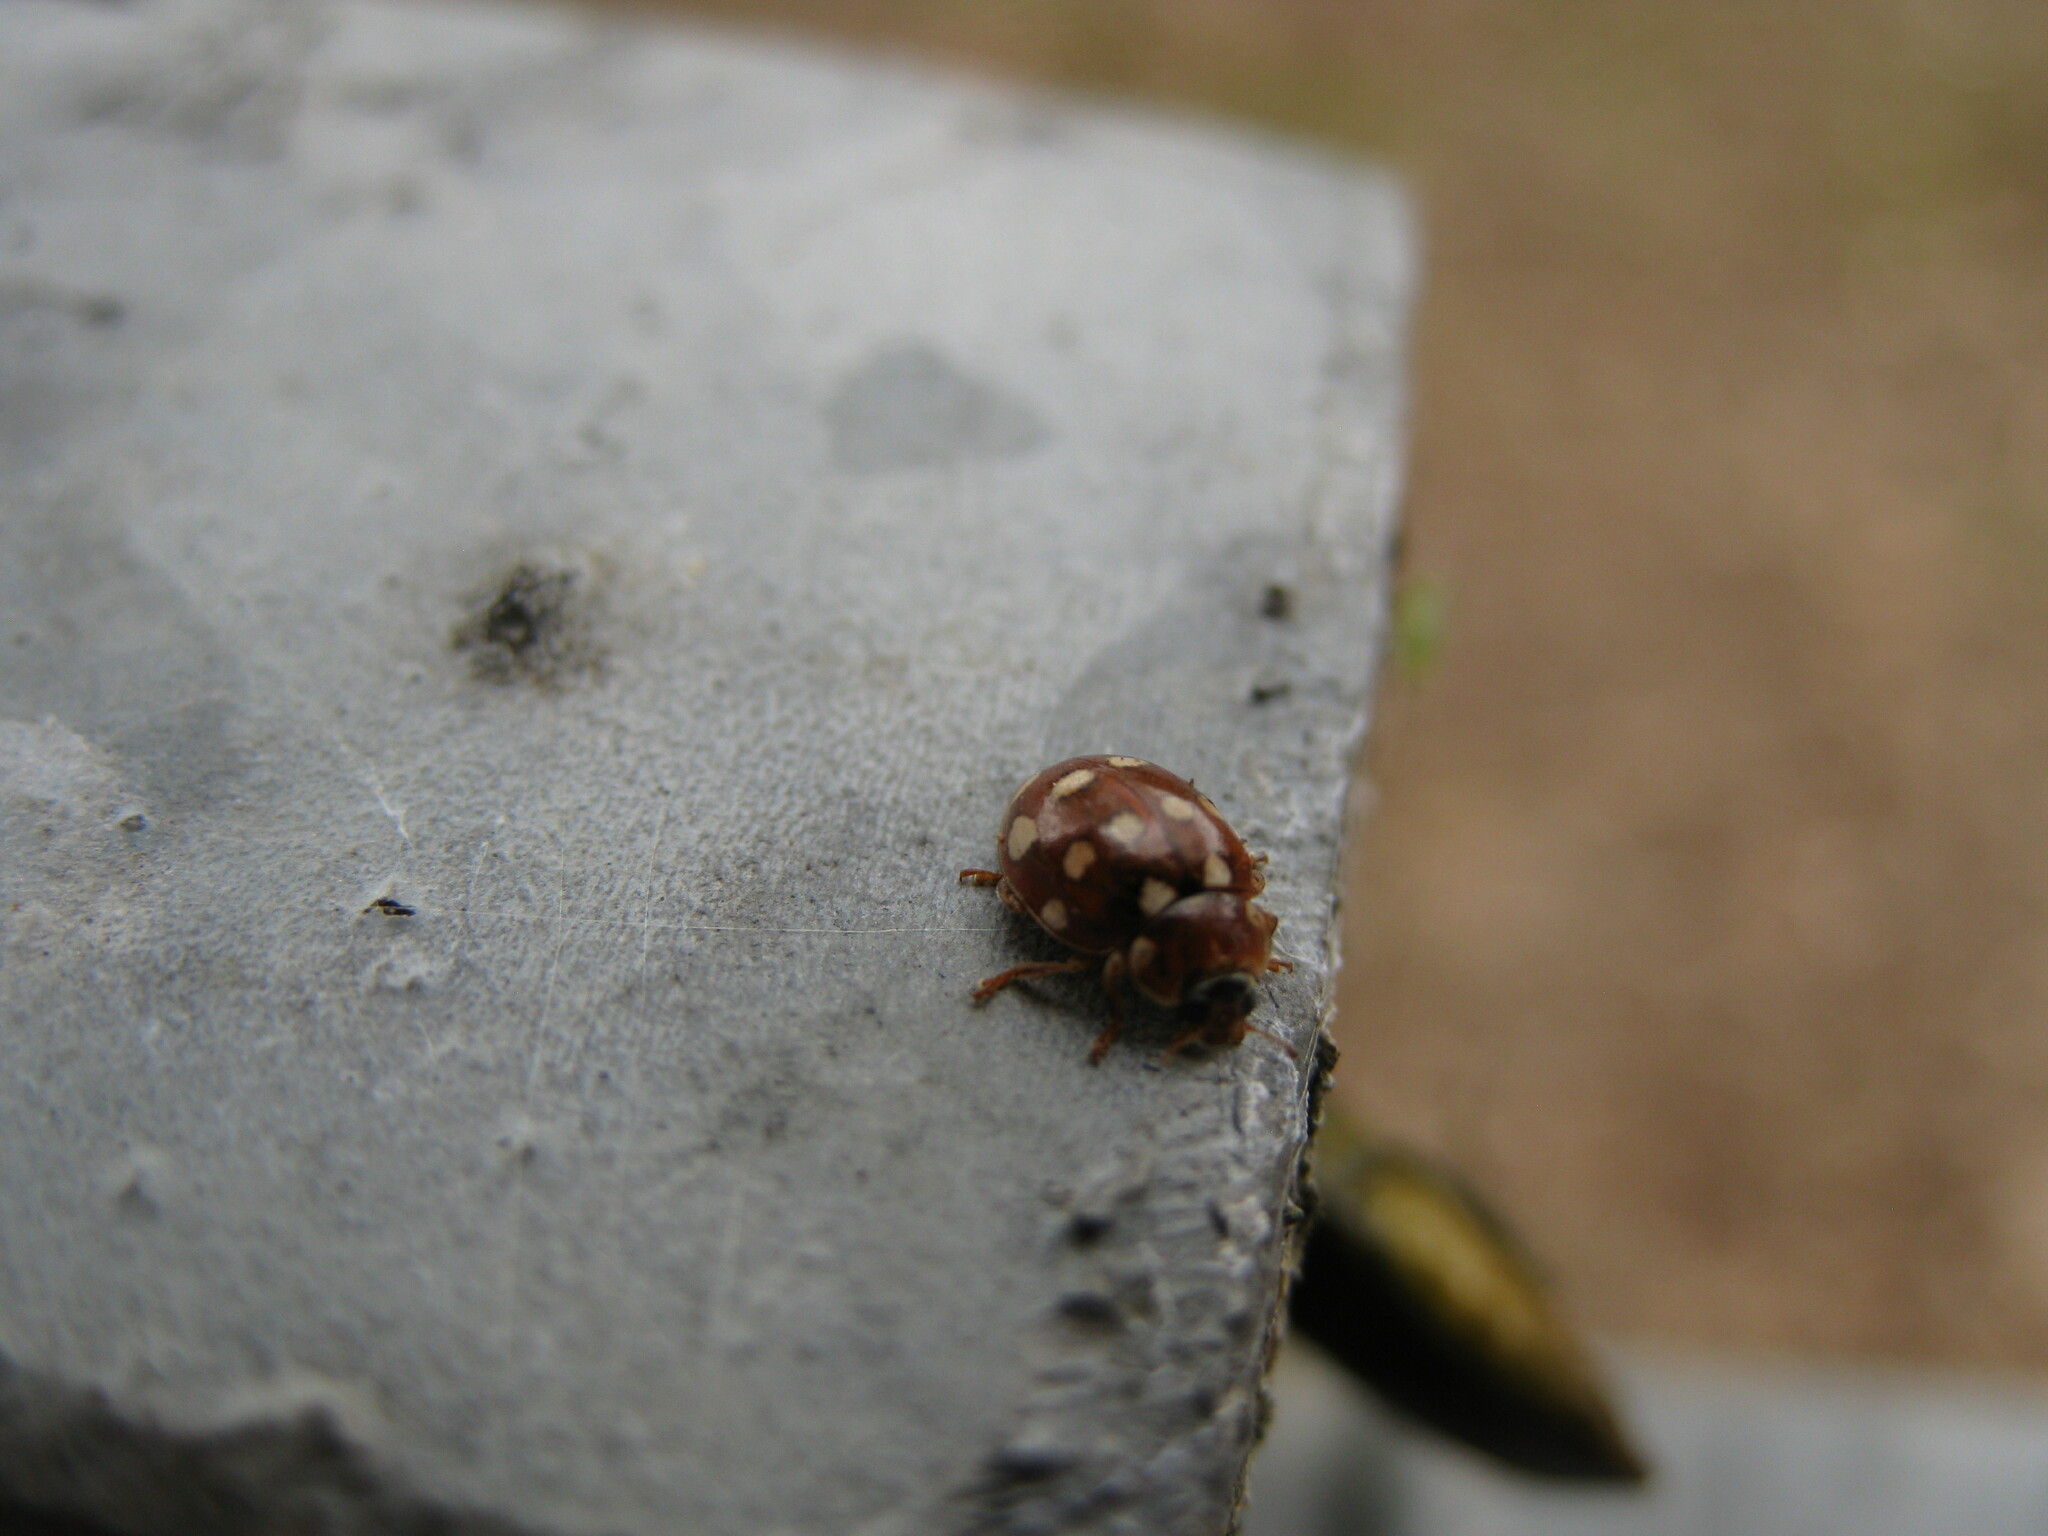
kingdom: Animalia
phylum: Arthropoda
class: Insecta
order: Coleoptera
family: Coccinellidae
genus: Calvia
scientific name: Calvia quatuordecimguttata
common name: Cream-spot ladybird
